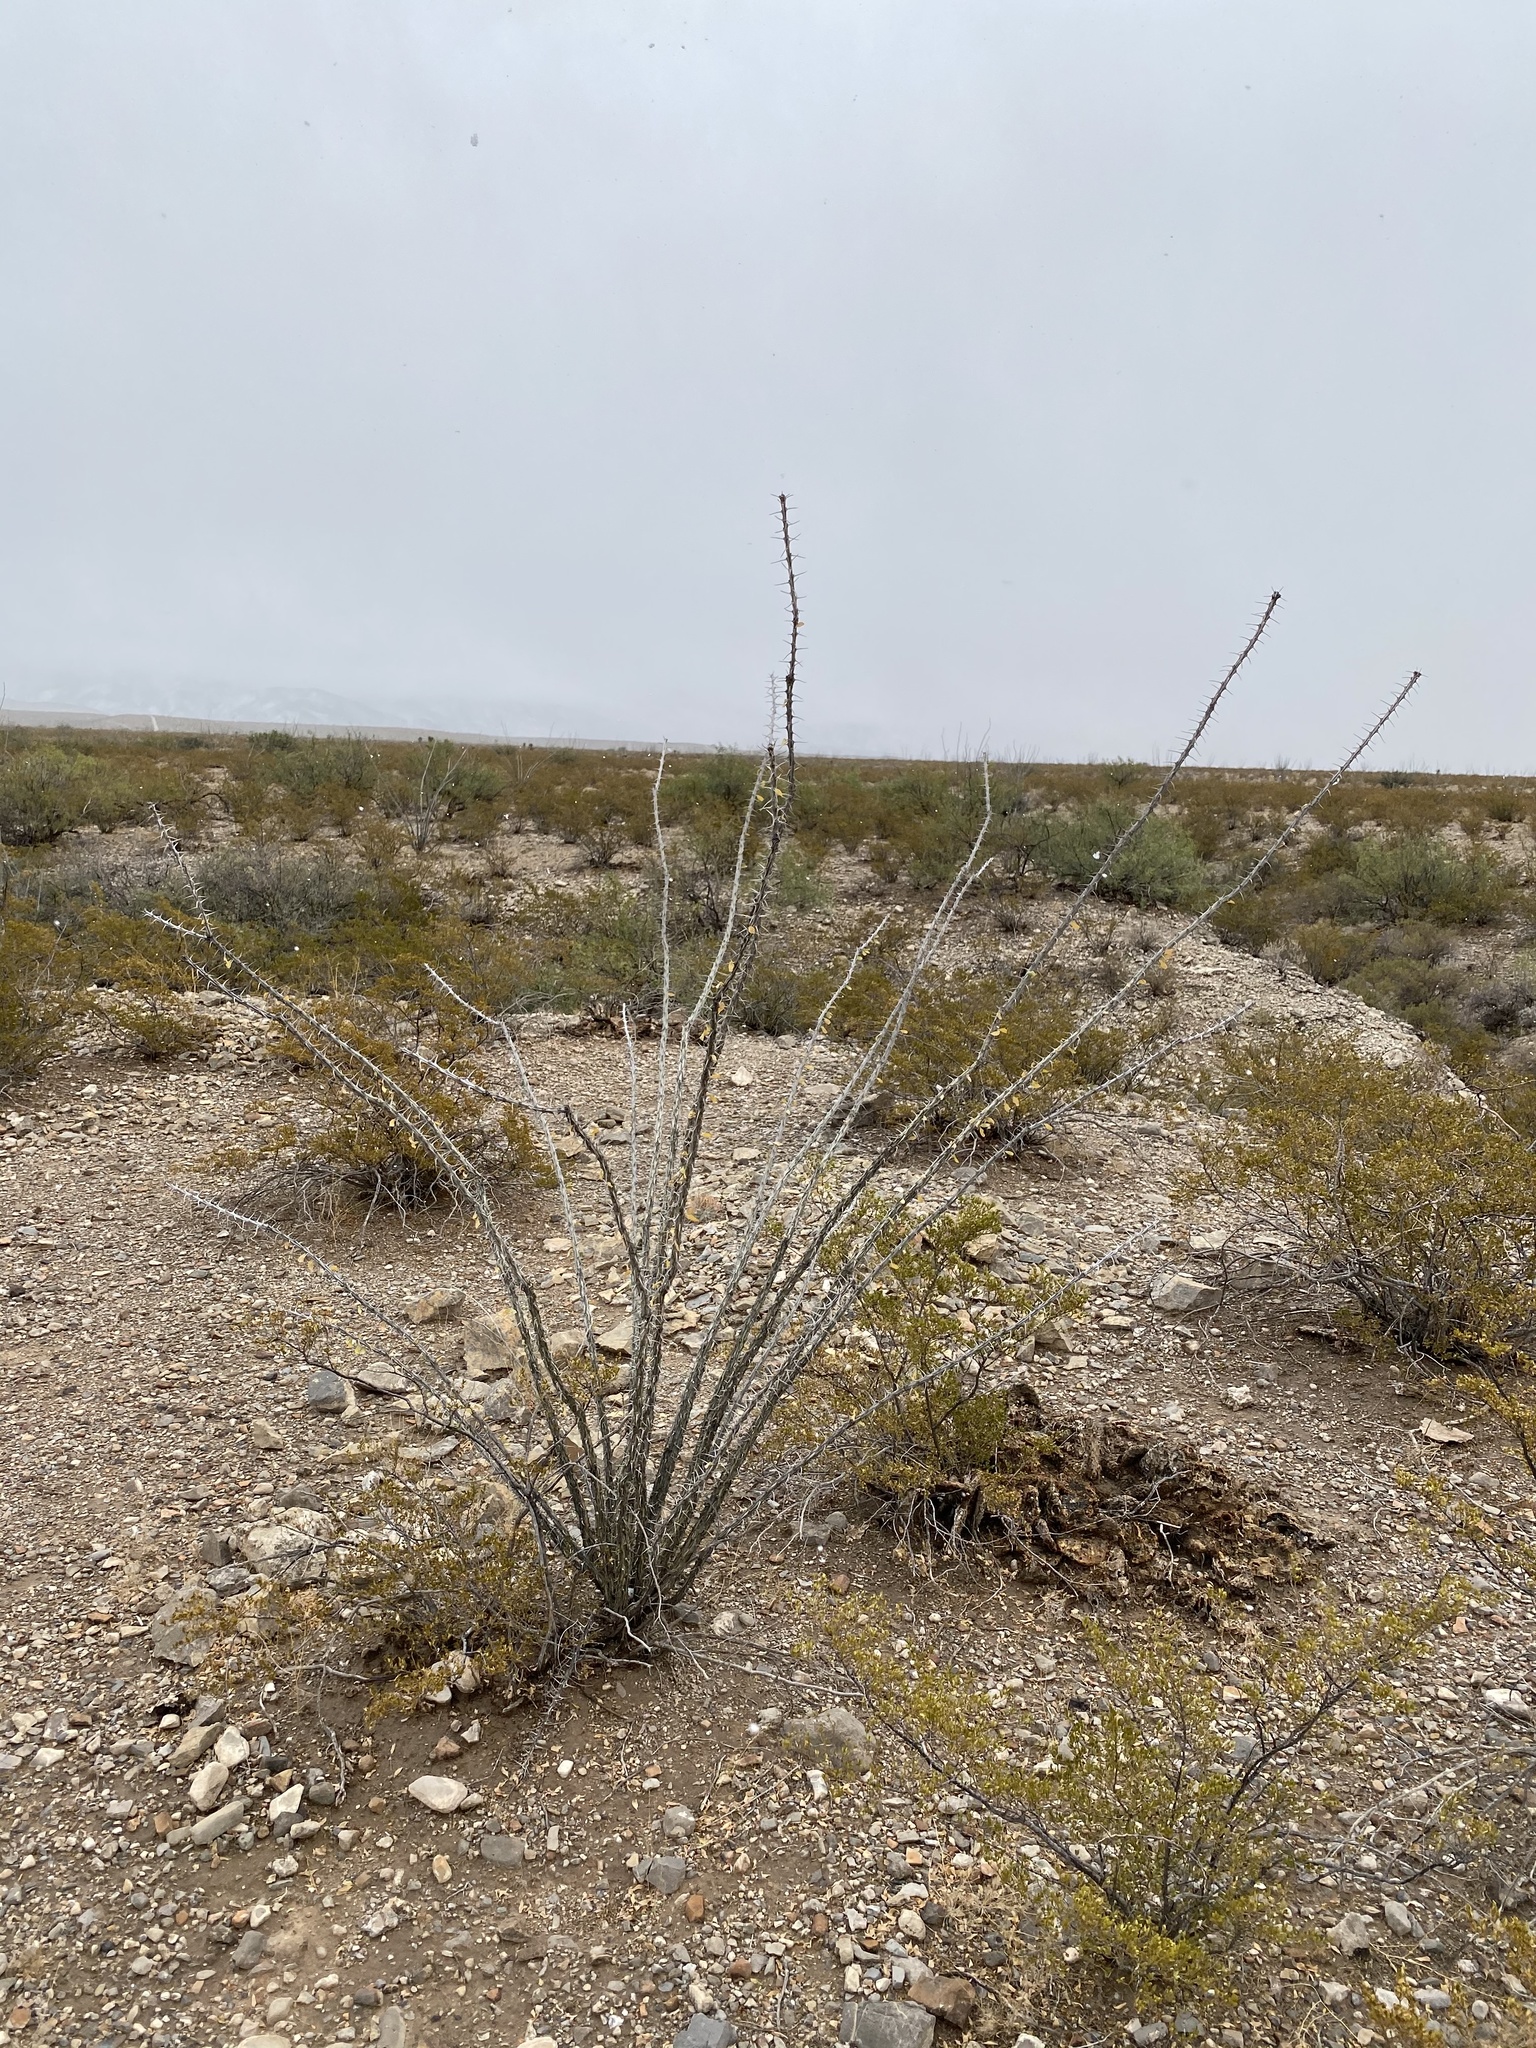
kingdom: Plantae
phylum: Tracheophyta
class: Magnoliopsida
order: Ericales
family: Fouquieriaceae
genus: Fouquieria
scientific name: Fouquieria splendens
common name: Vine-cactus
